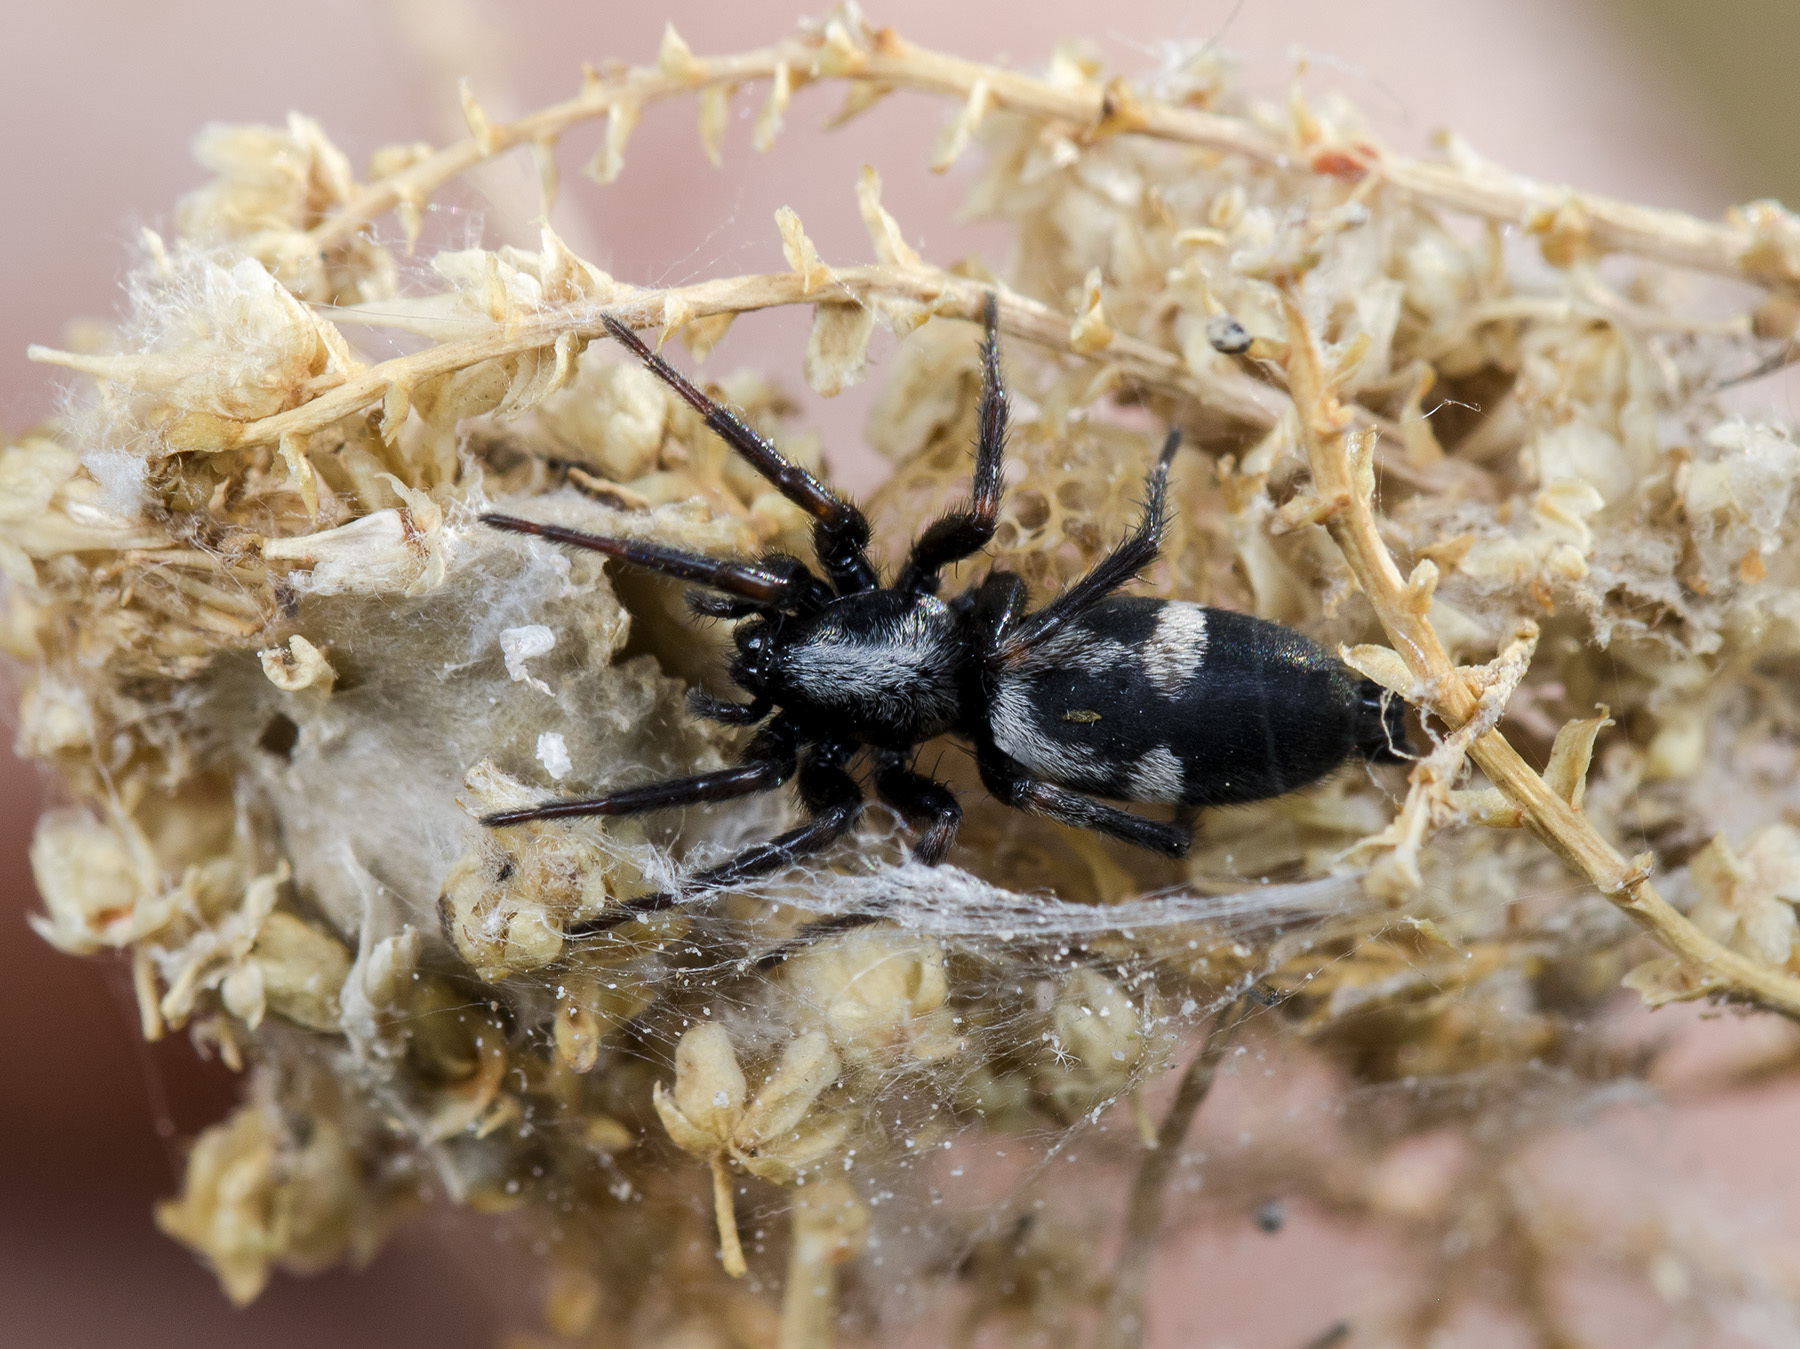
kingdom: Animalia
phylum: Arthropoda
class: Arachnida
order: Araneae
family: Gnaphosidae
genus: Aphantaulax
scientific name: Aphantaulax trifasciata
